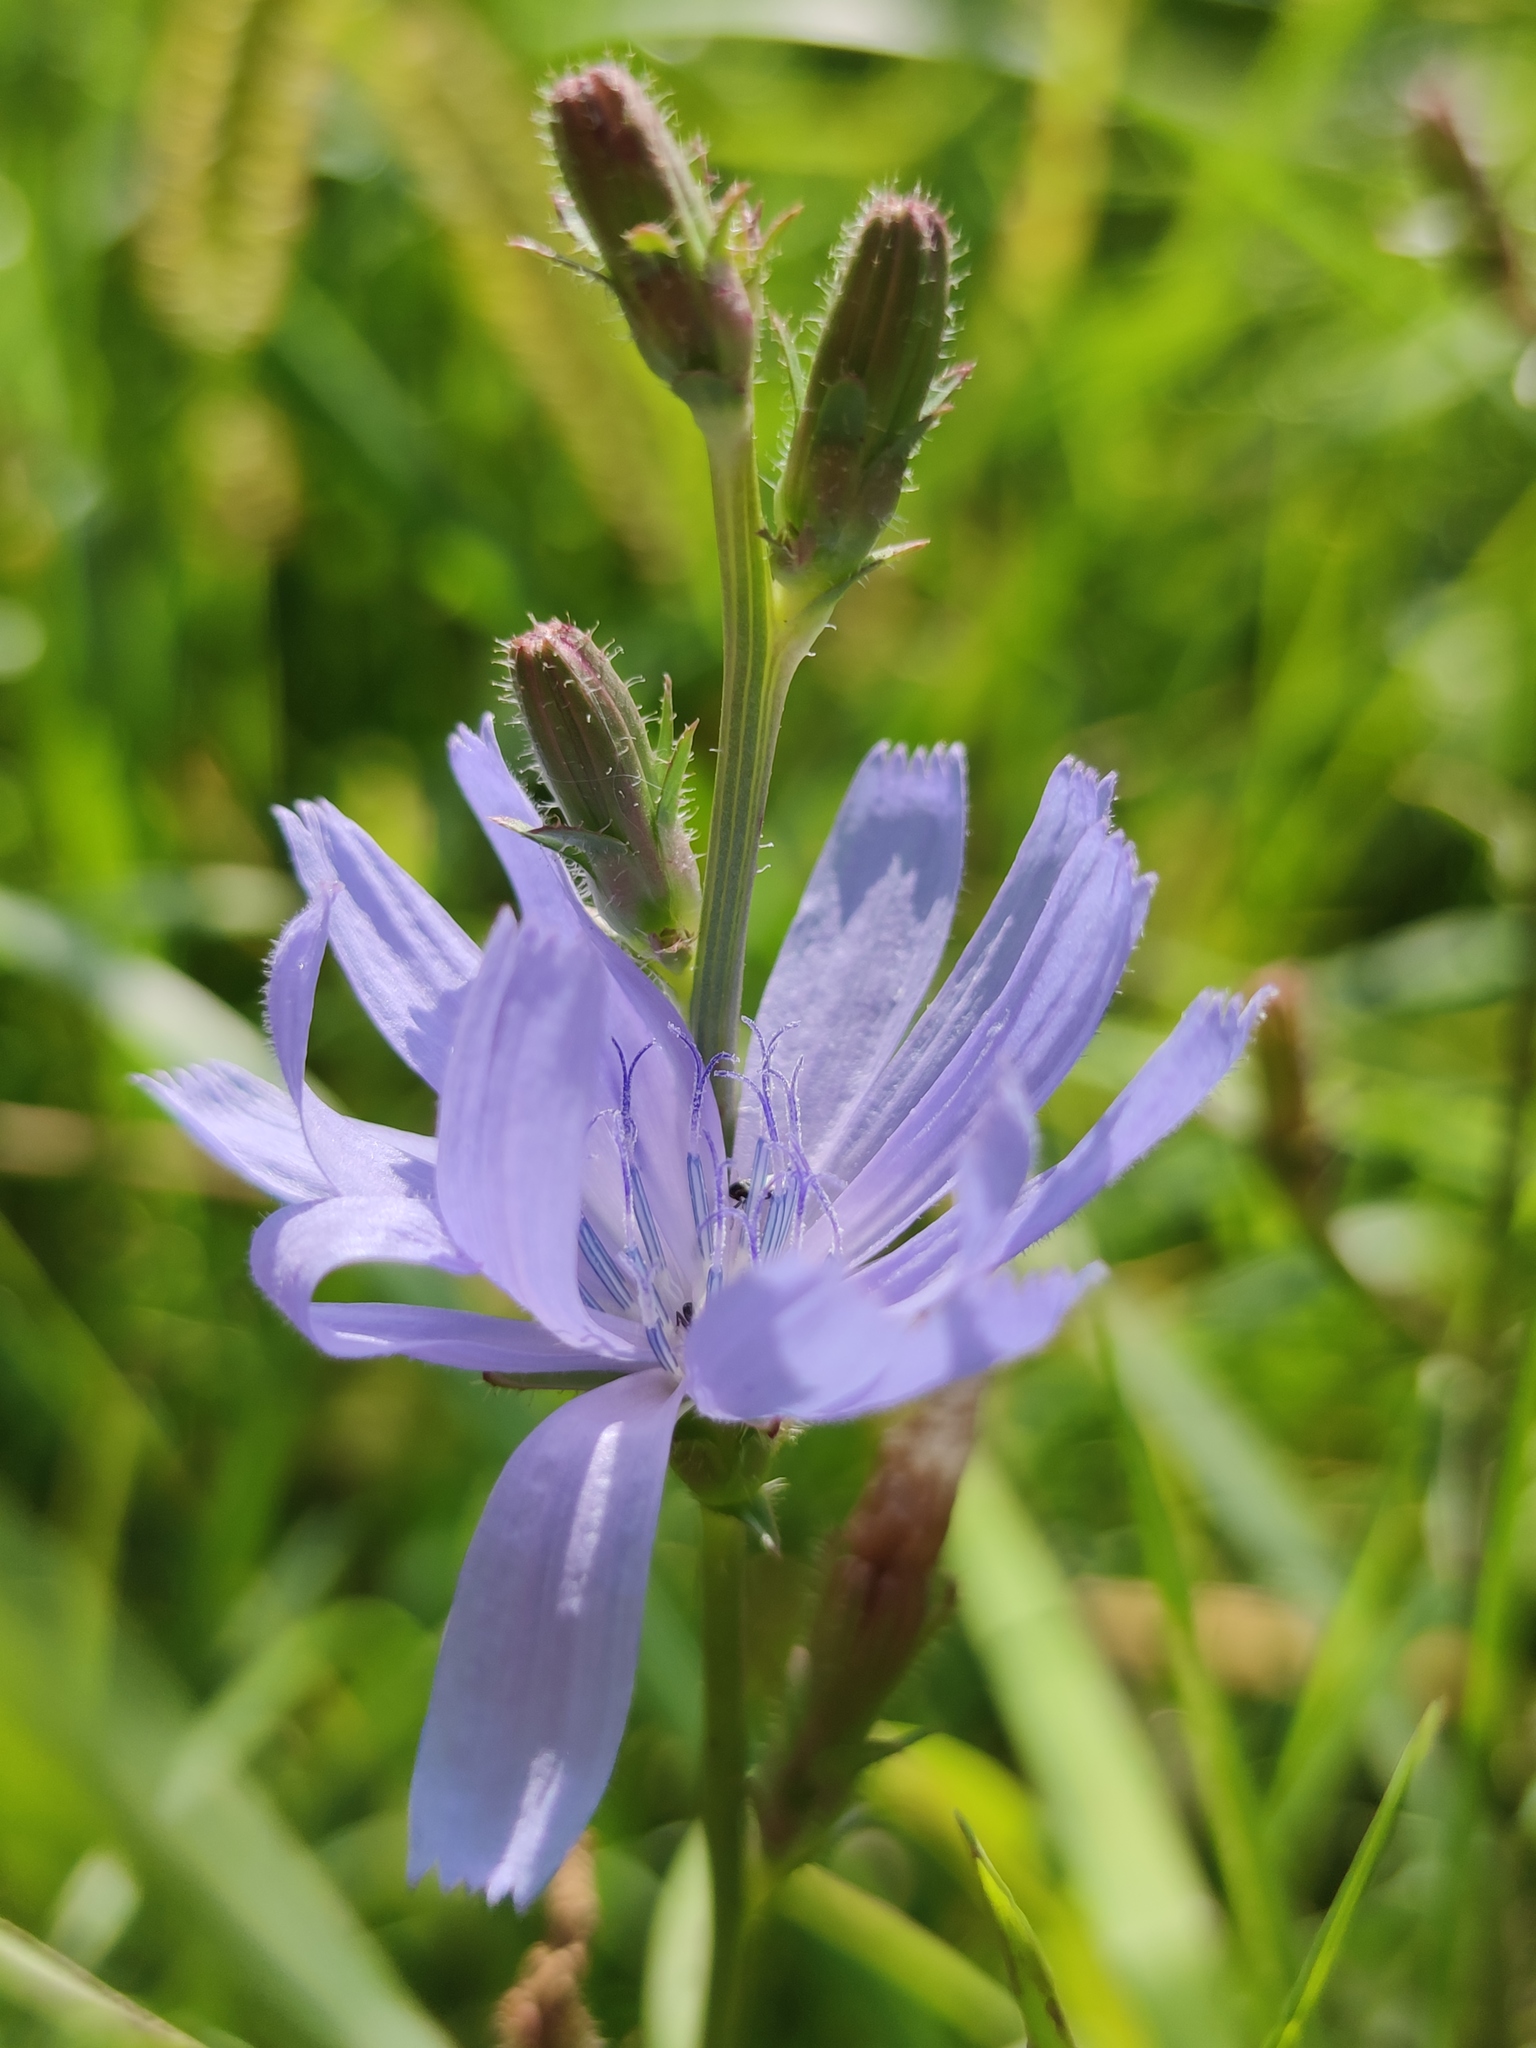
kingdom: Plantae
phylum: Tracheophyta
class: Magnoliopsida
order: Asterales
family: Asteraceae
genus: Cichorium
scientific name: Cichorium intybus
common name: Chicory
